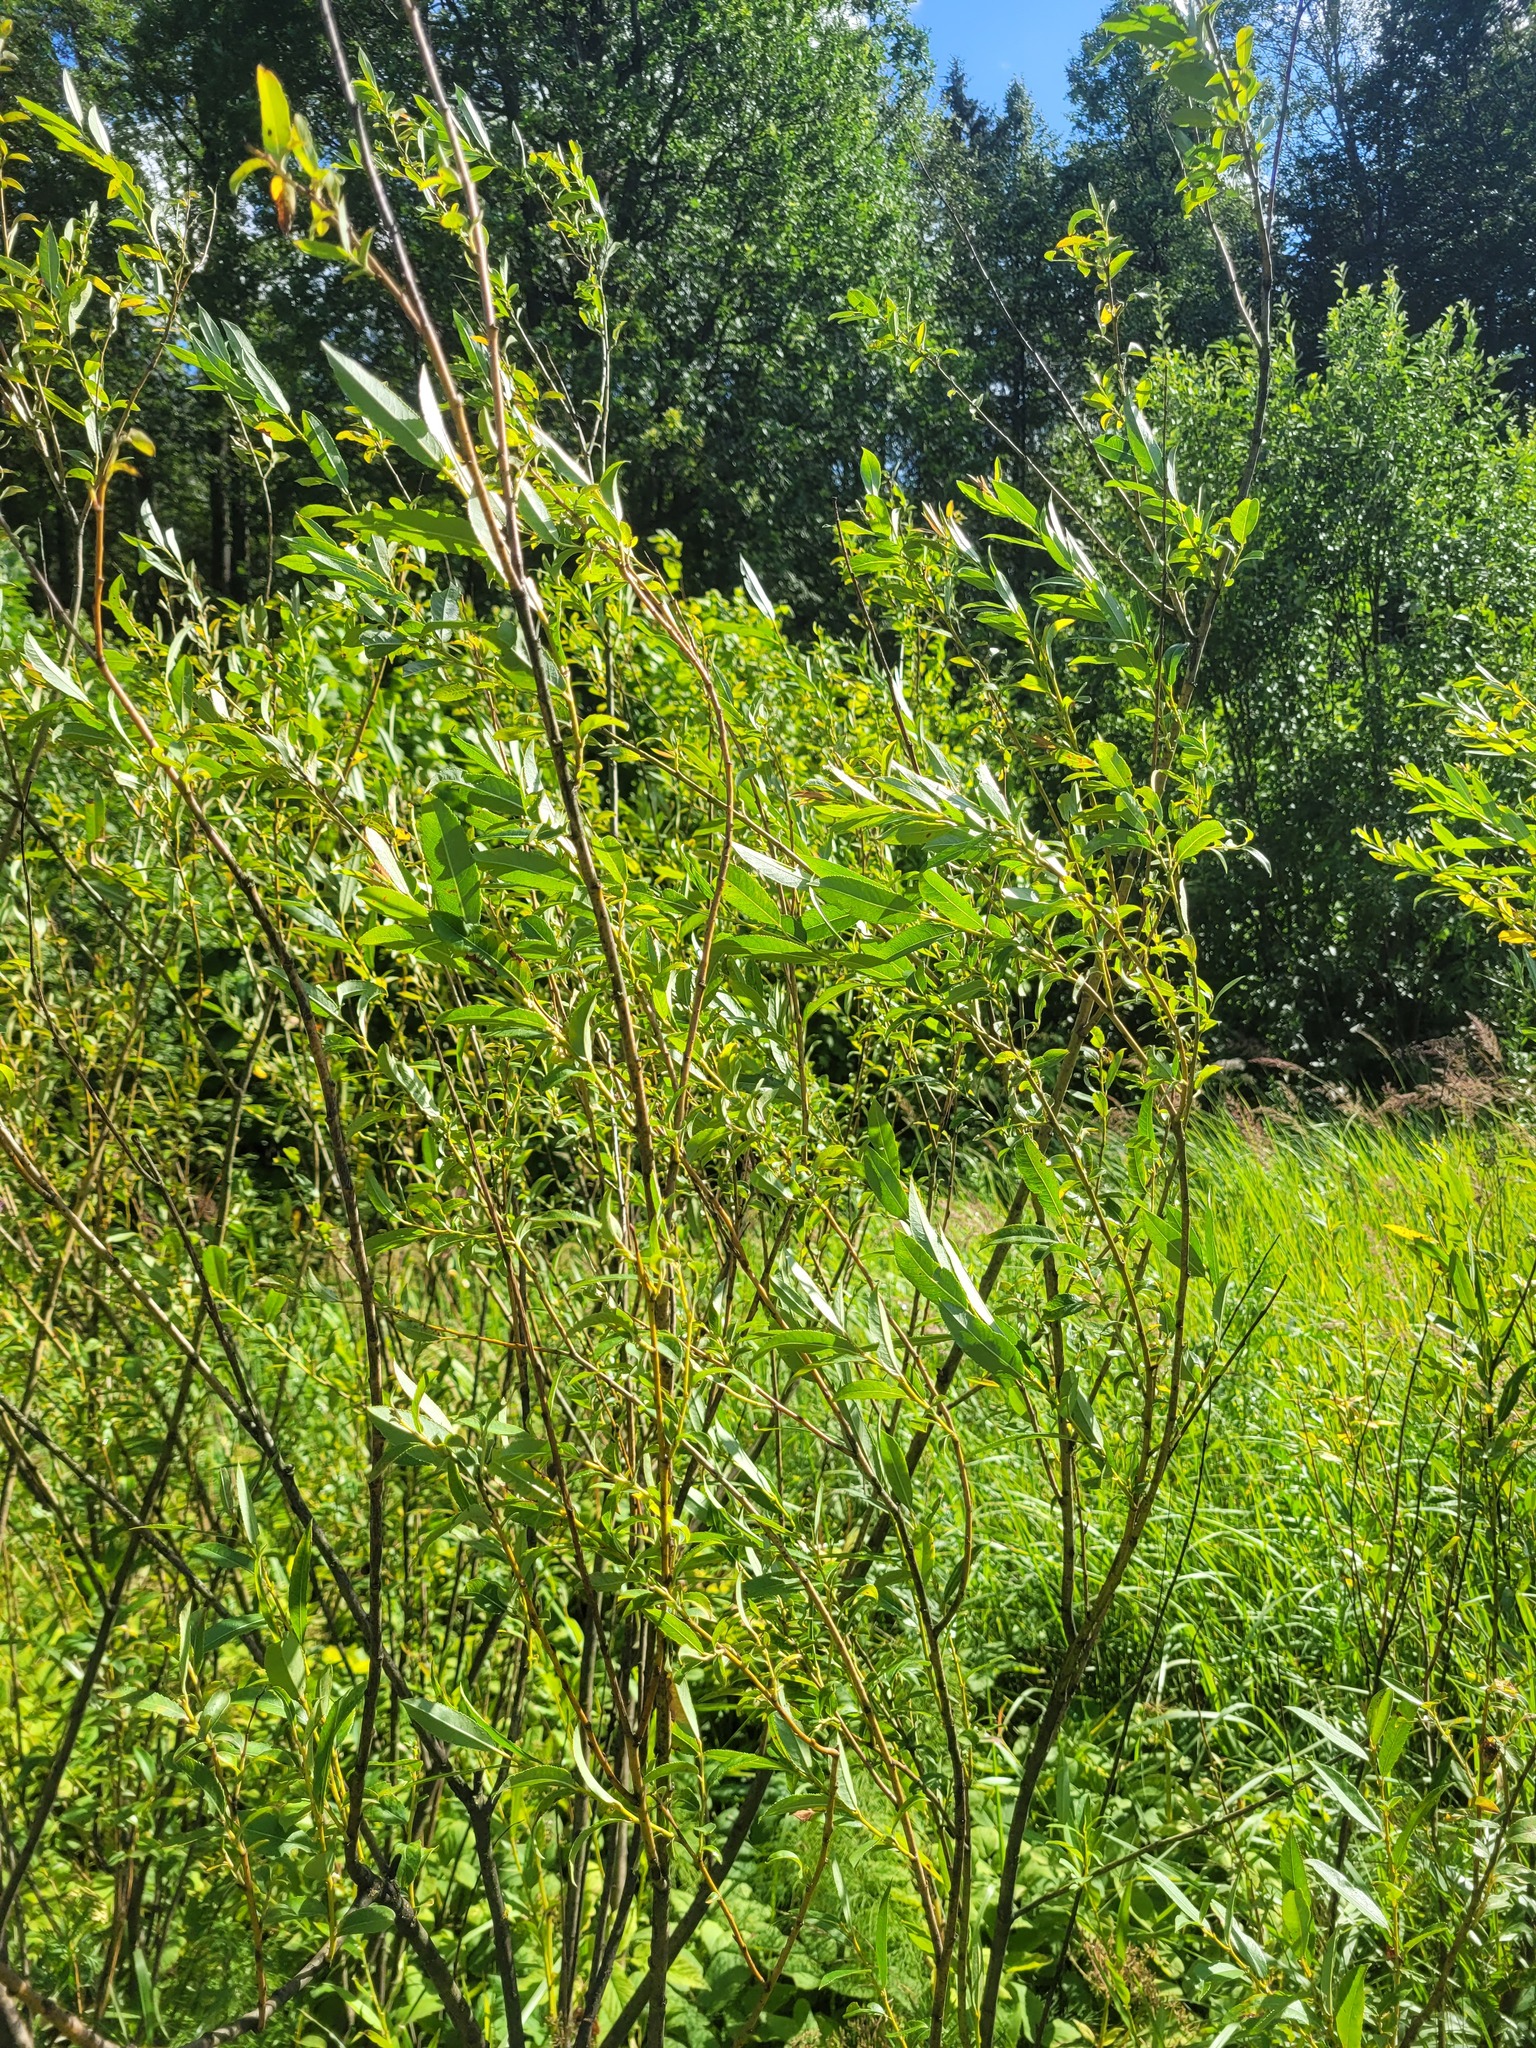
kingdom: Plantae
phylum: Tracheophyta
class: Magnoliopsida
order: Malpighiales
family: Salicaceae
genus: Salix
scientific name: Salix triandra
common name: Almond willow
